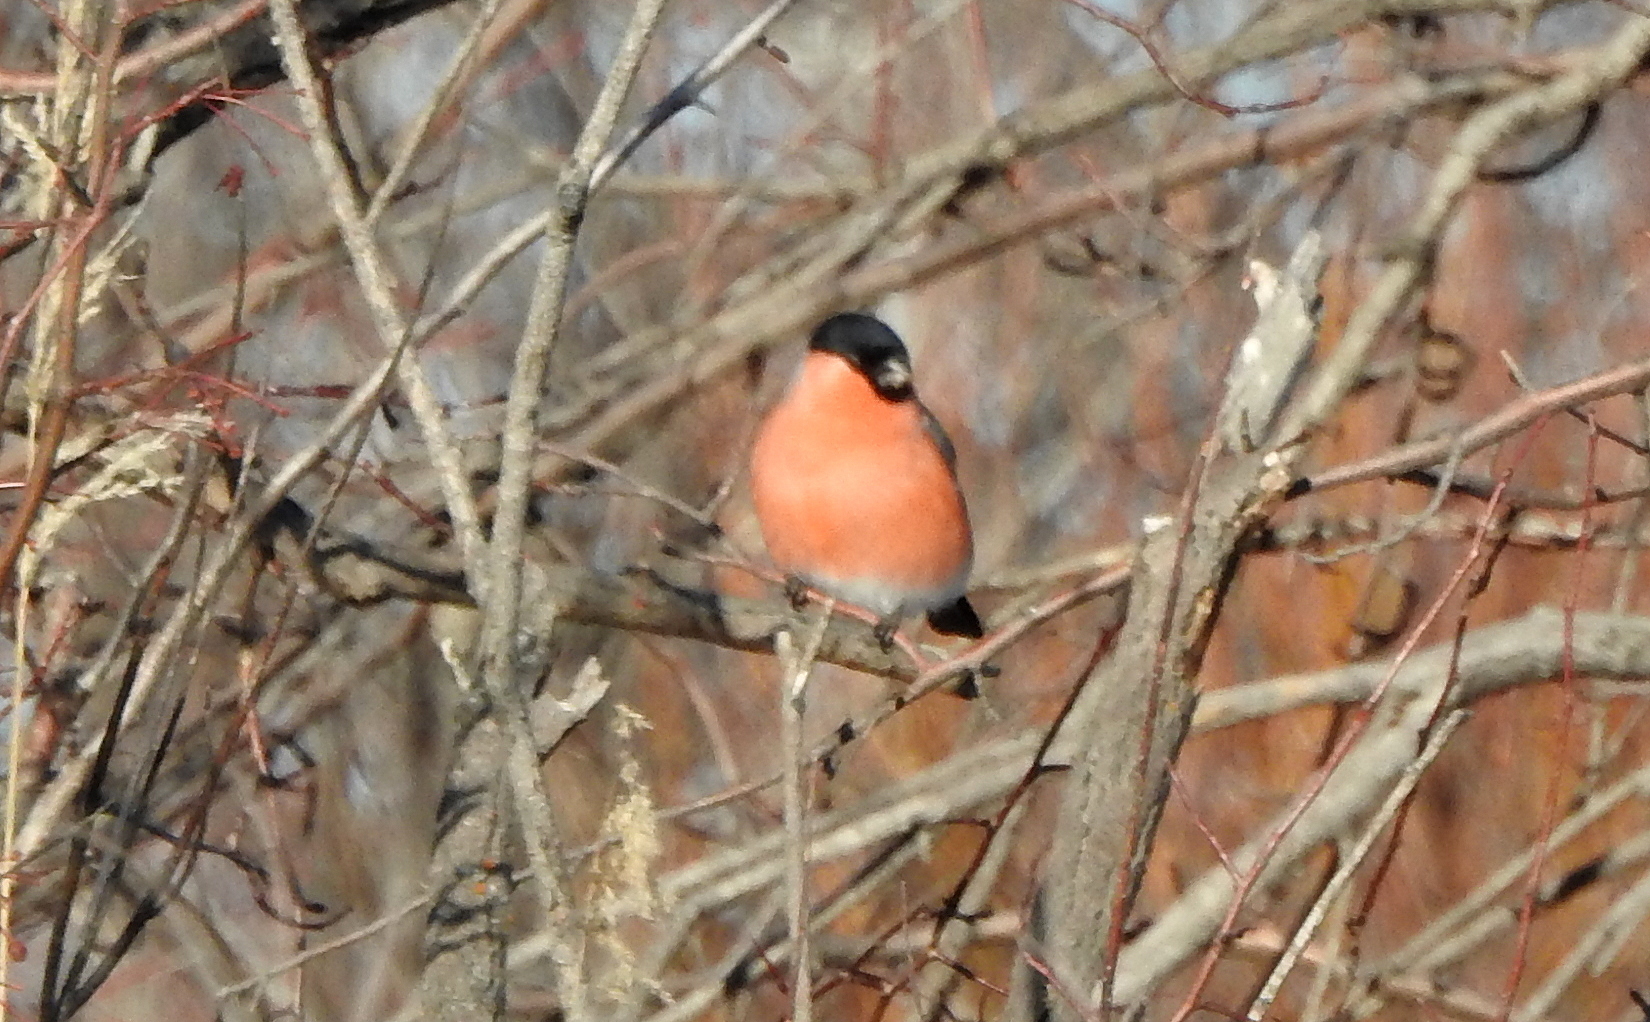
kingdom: Animalia
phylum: Chordata
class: Aves
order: Passeriformes
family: Fringillidae
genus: Pyrrhula
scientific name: Pyrrhula pyrrhula
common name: Eurasian bullfinch
